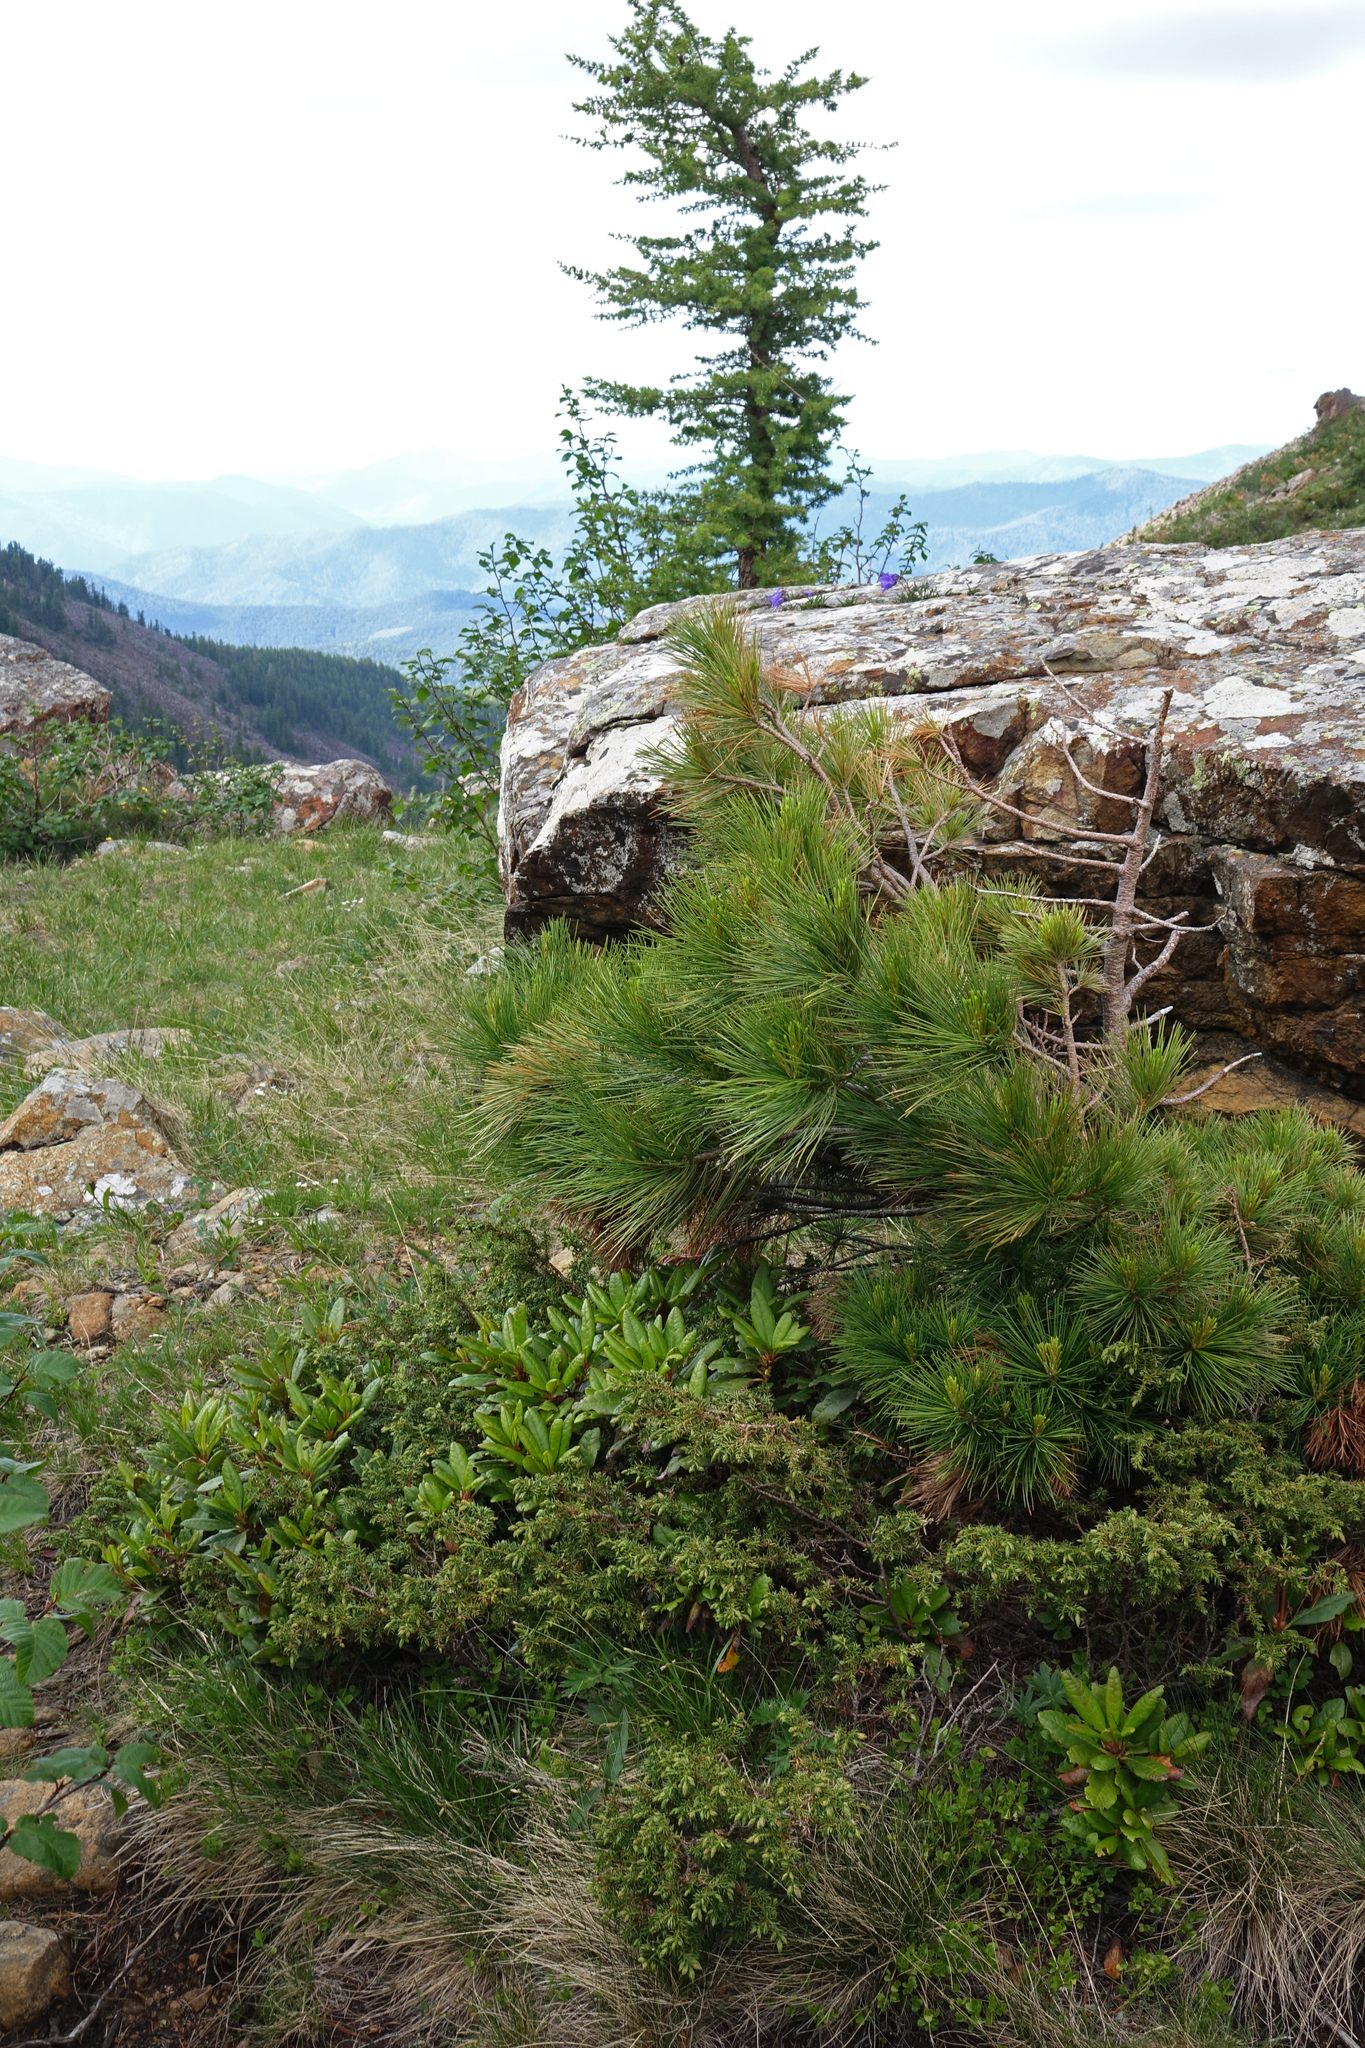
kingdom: Plantae
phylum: Tracheophyta
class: Pinopsida
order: Pinales
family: Pinaceae
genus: Pinus
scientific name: Pinus sibirica
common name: Siberian pine
